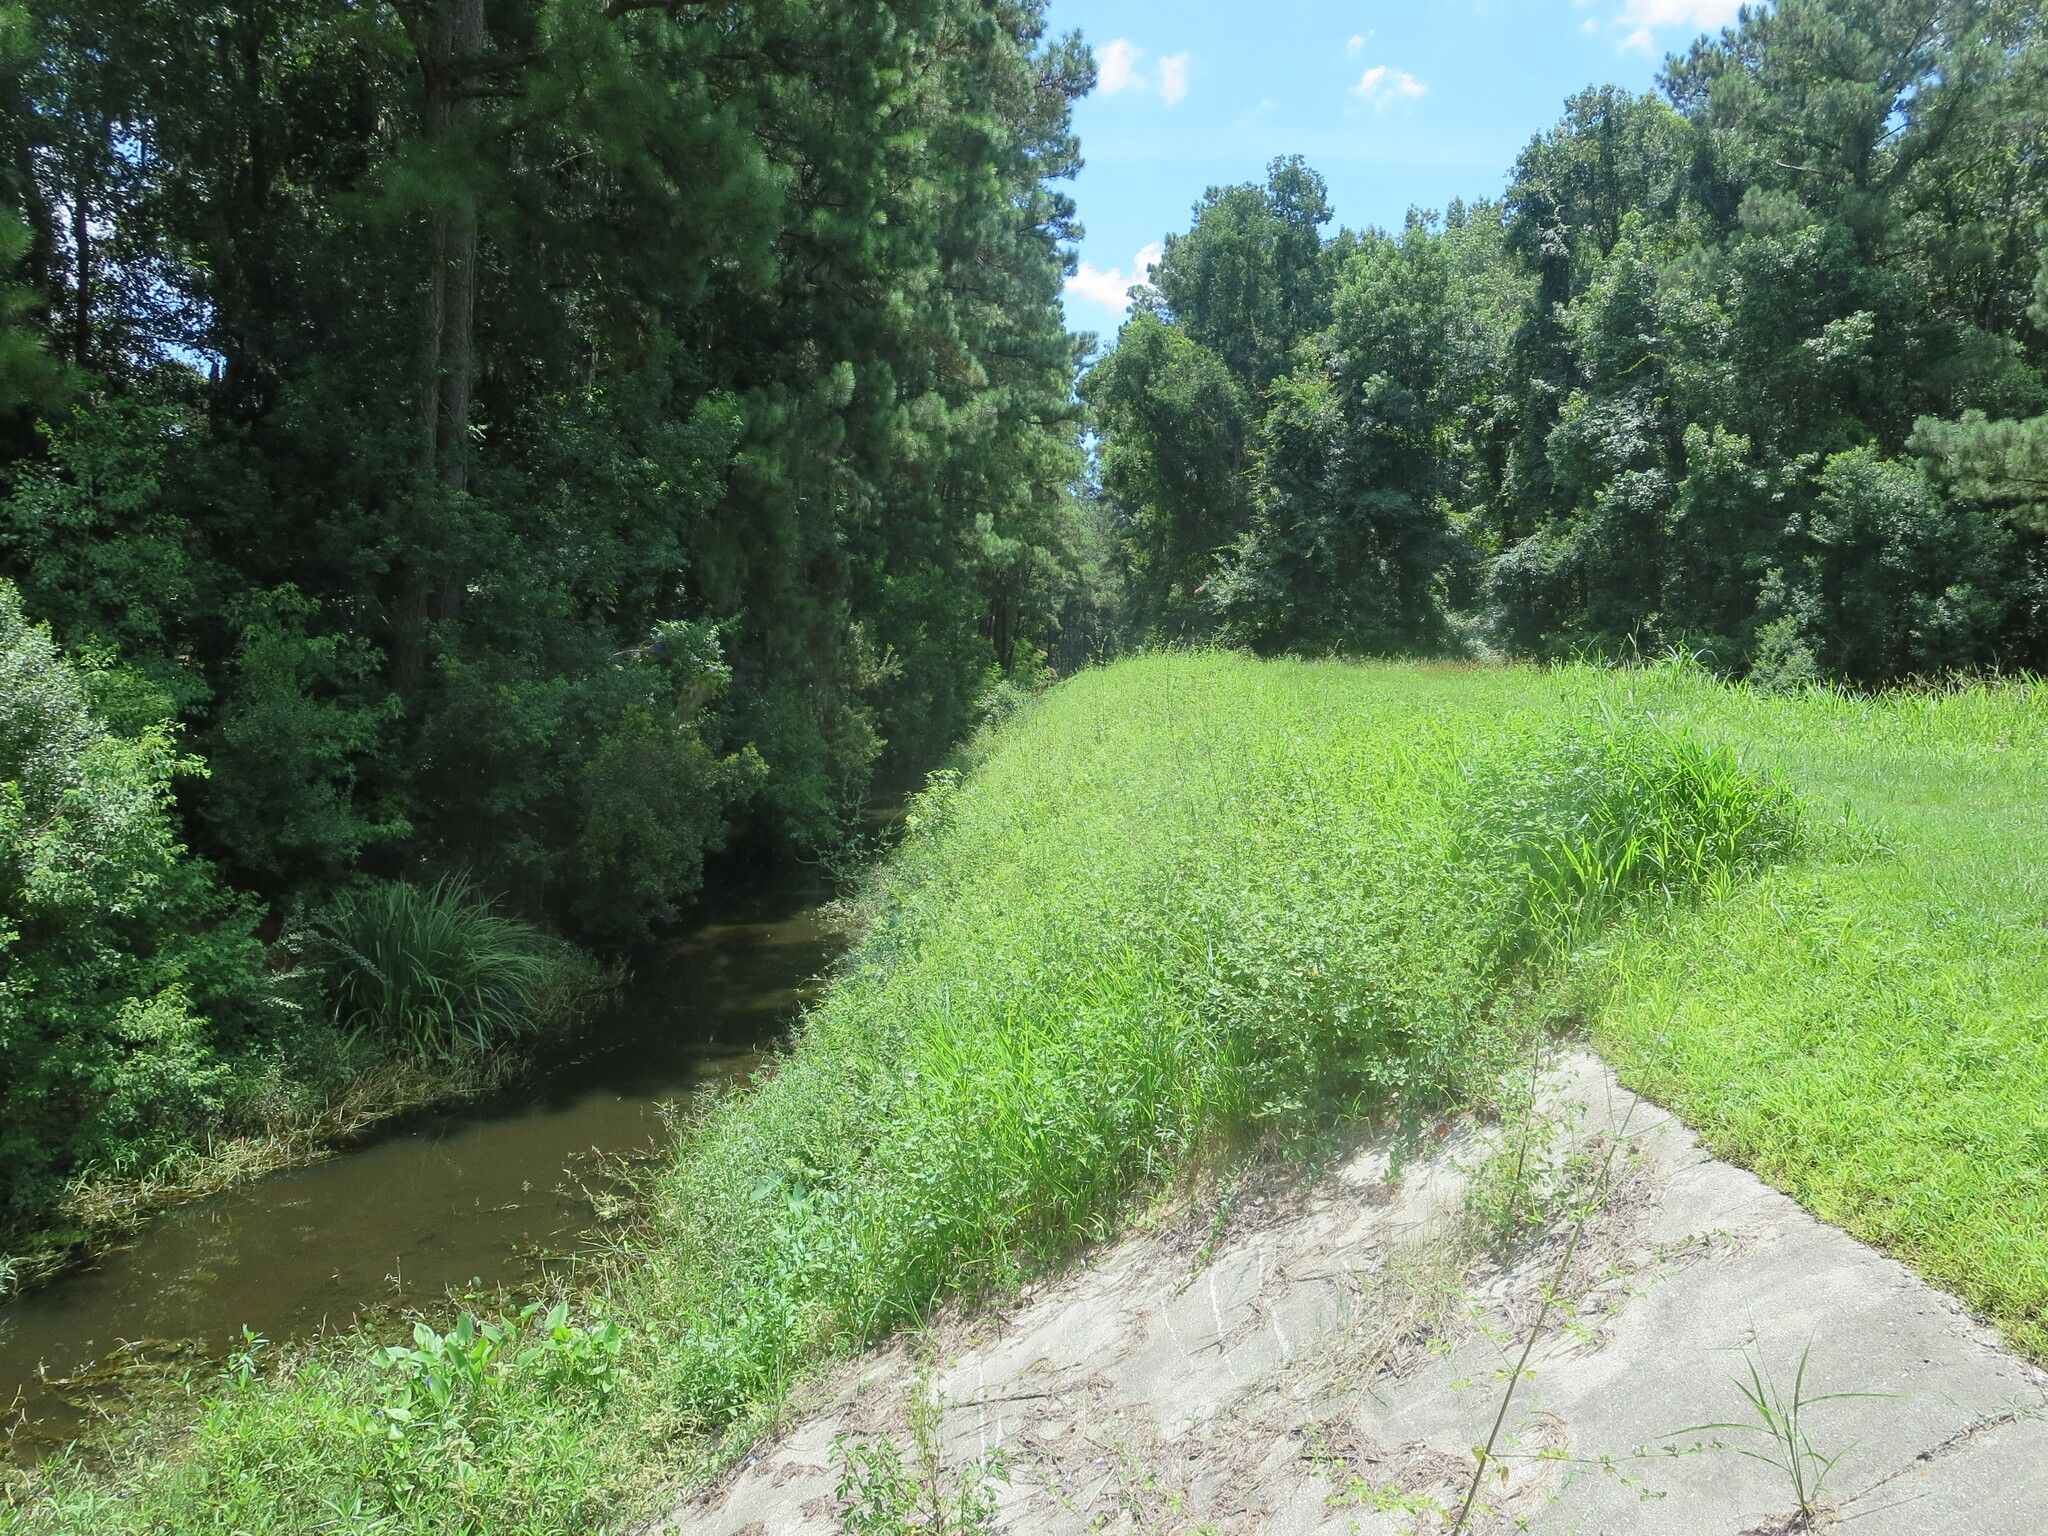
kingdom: Plantae
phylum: Tracheophyta
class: Magnoliopsida
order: Dipsacales
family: Viburnaceae
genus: Sambucus
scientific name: Sambucus canadensis
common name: American elder
